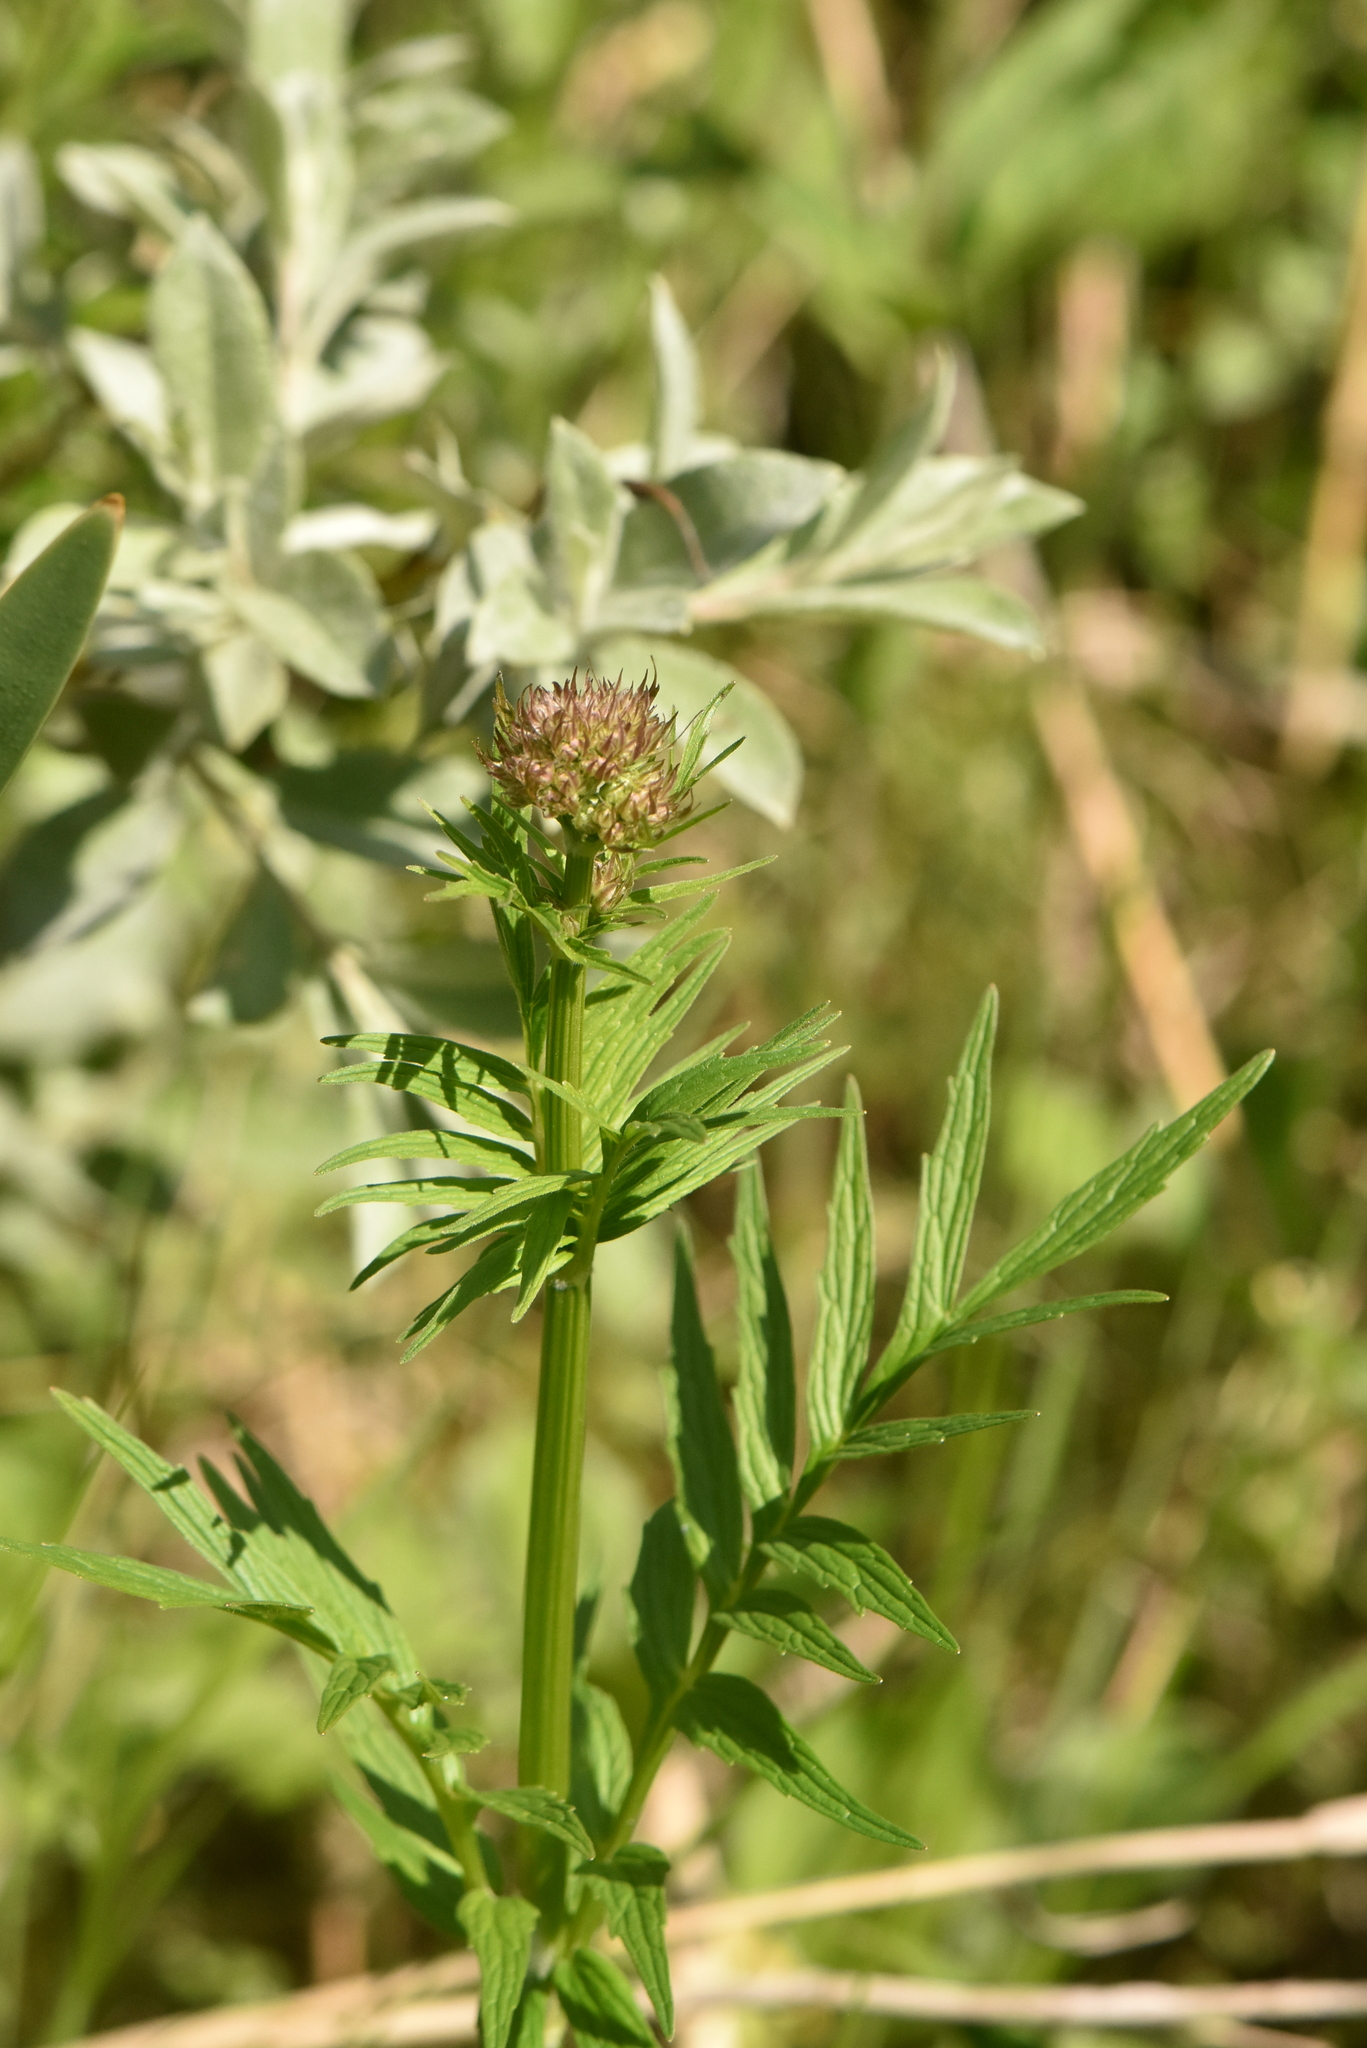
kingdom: Plantae
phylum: Tracheophyta
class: Magnoliopsida
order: Dipsacales
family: Caprifoliaceae
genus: Valeriana
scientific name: Valeriana officinalis
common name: Common valerian
